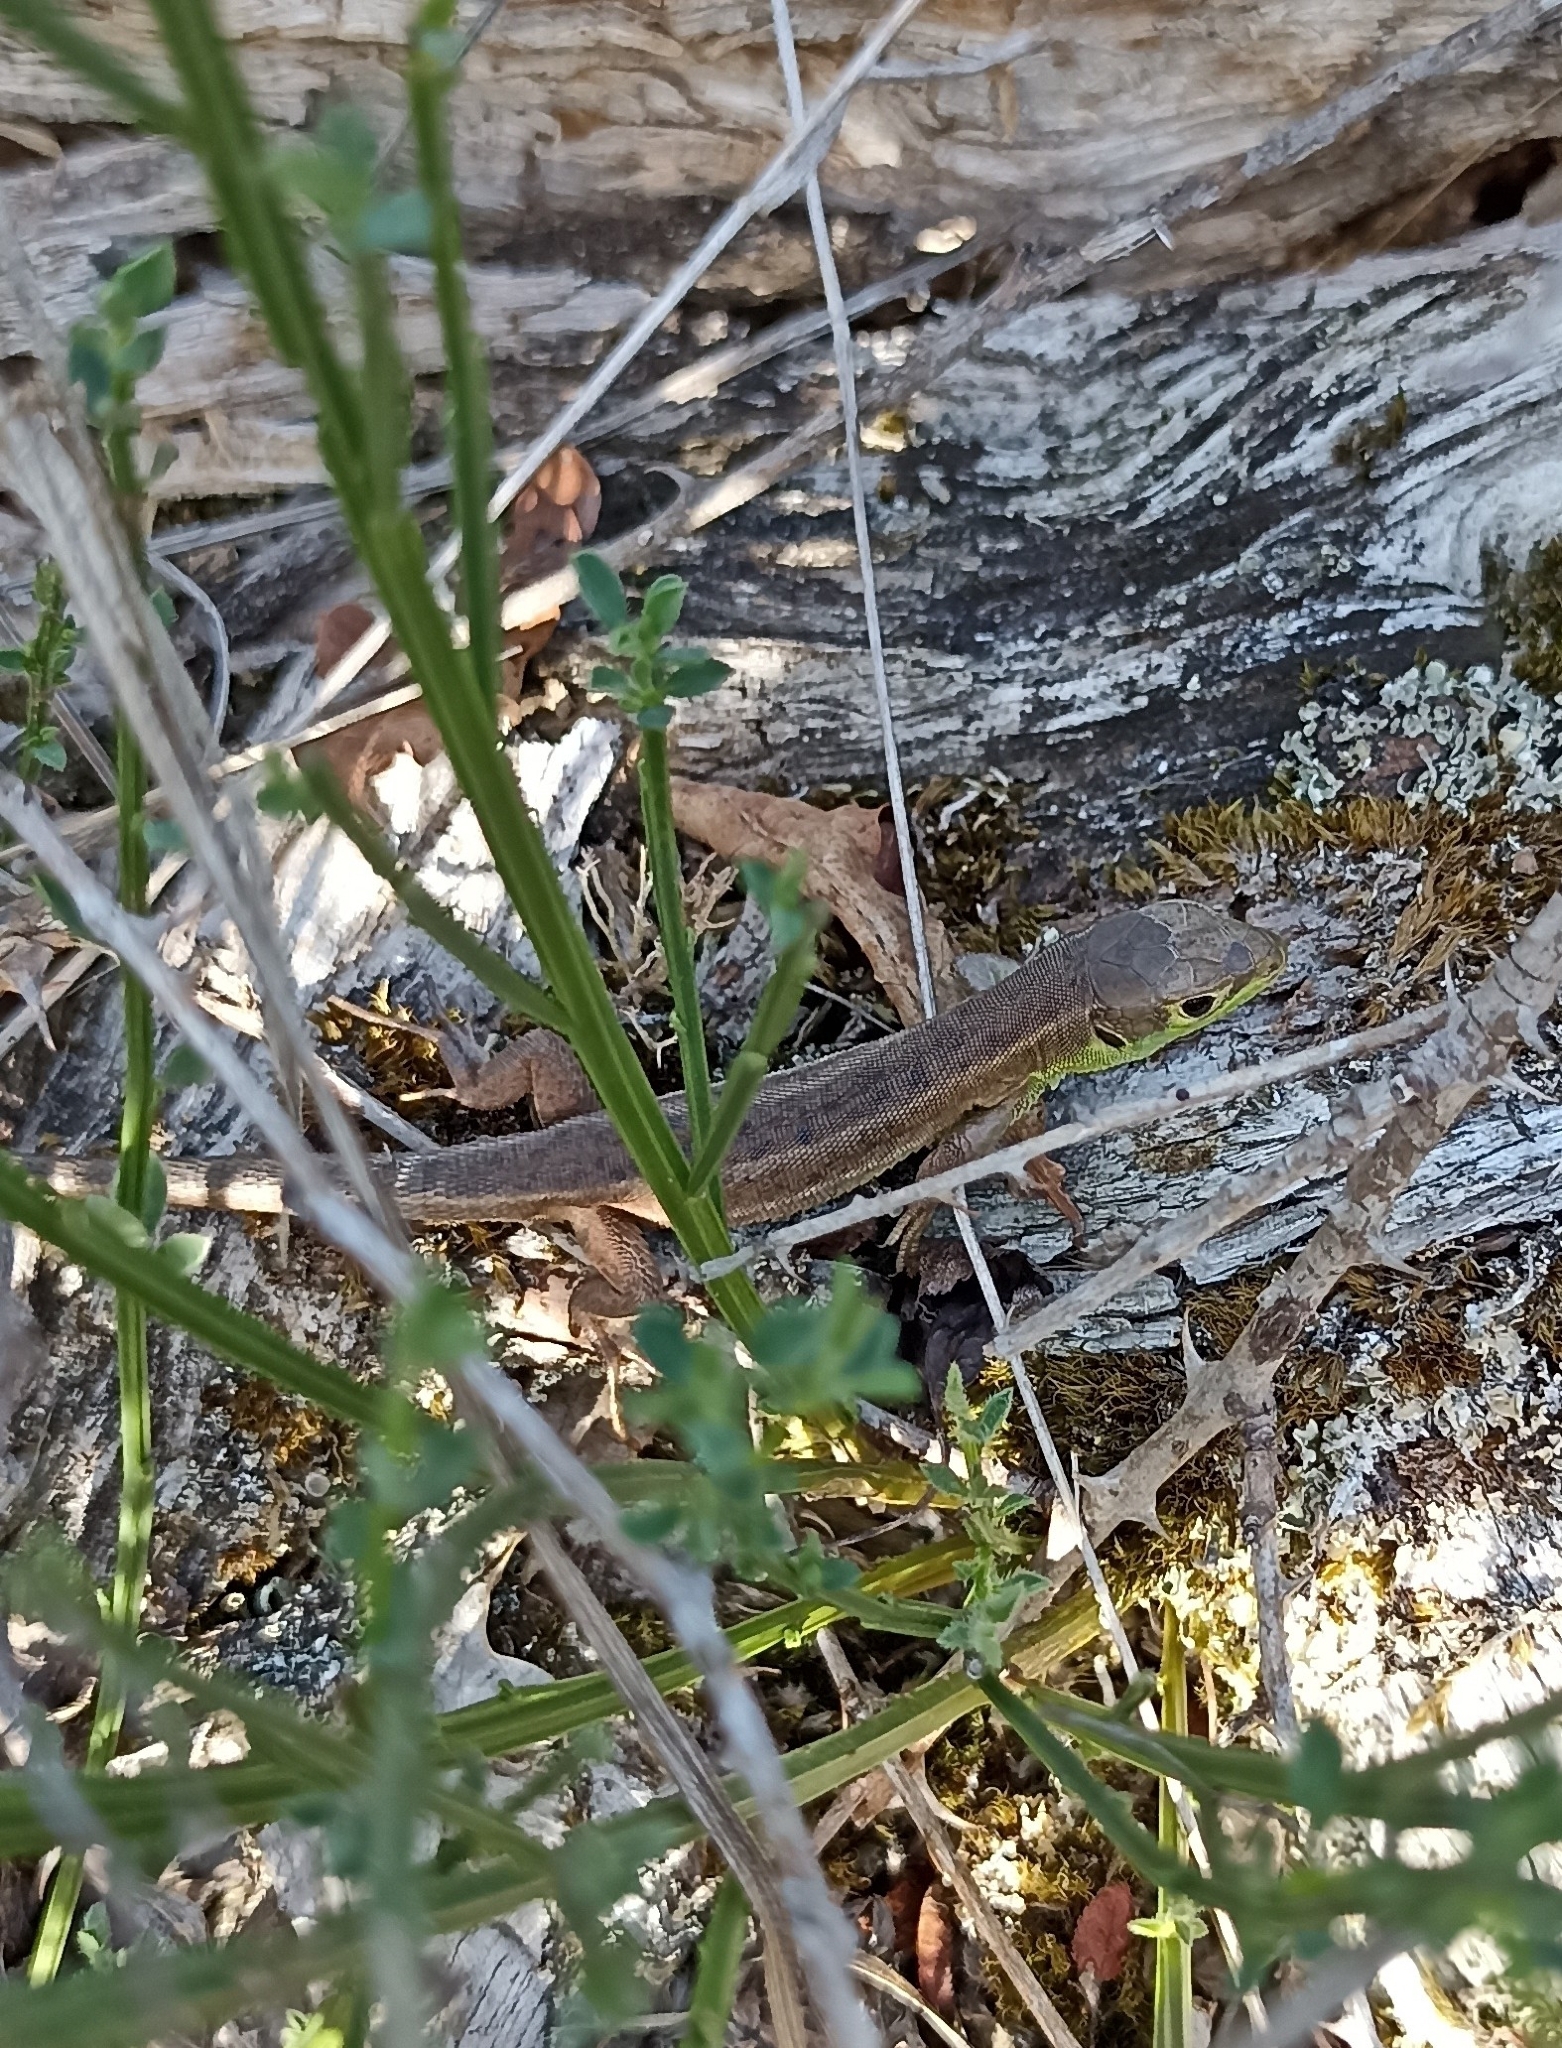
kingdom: Animalia
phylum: Chordata
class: Squamata
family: Lacertidae
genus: Lacerta
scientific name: Lacerta bilineata
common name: Western green lizard
